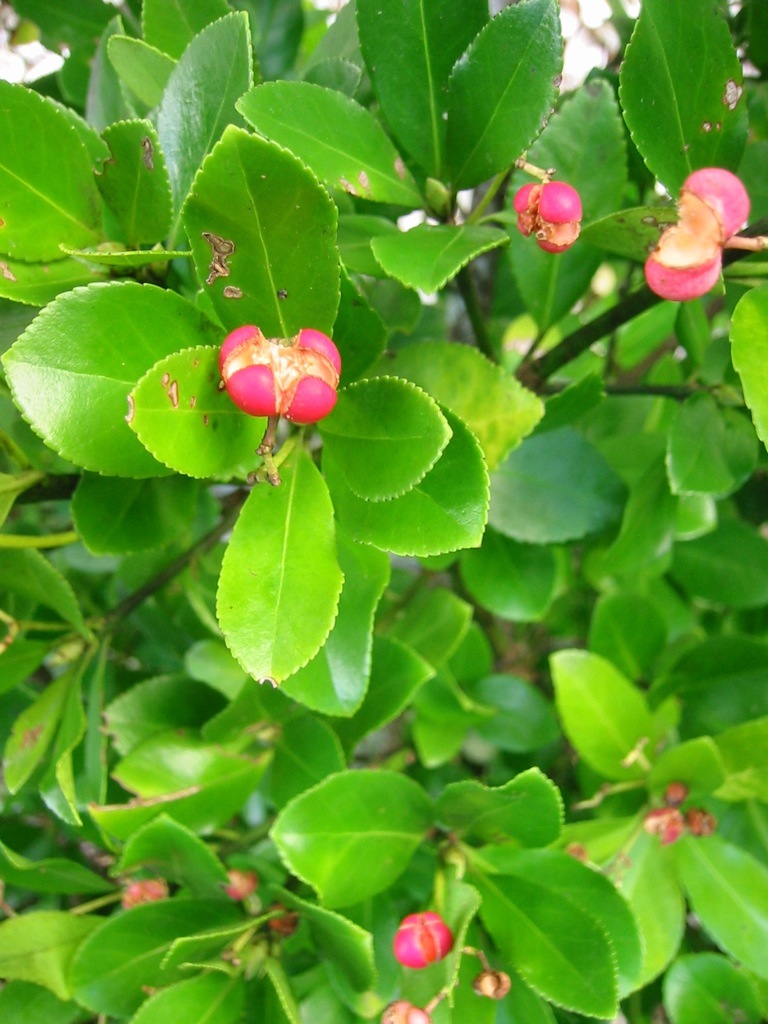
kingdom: Plantae
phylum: Tracheophyta
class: Magnoliopsida
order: Celastrales
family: Celastraceae
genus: Euonymus
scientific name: Euonymus japonicus
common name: Japanese spindletree
